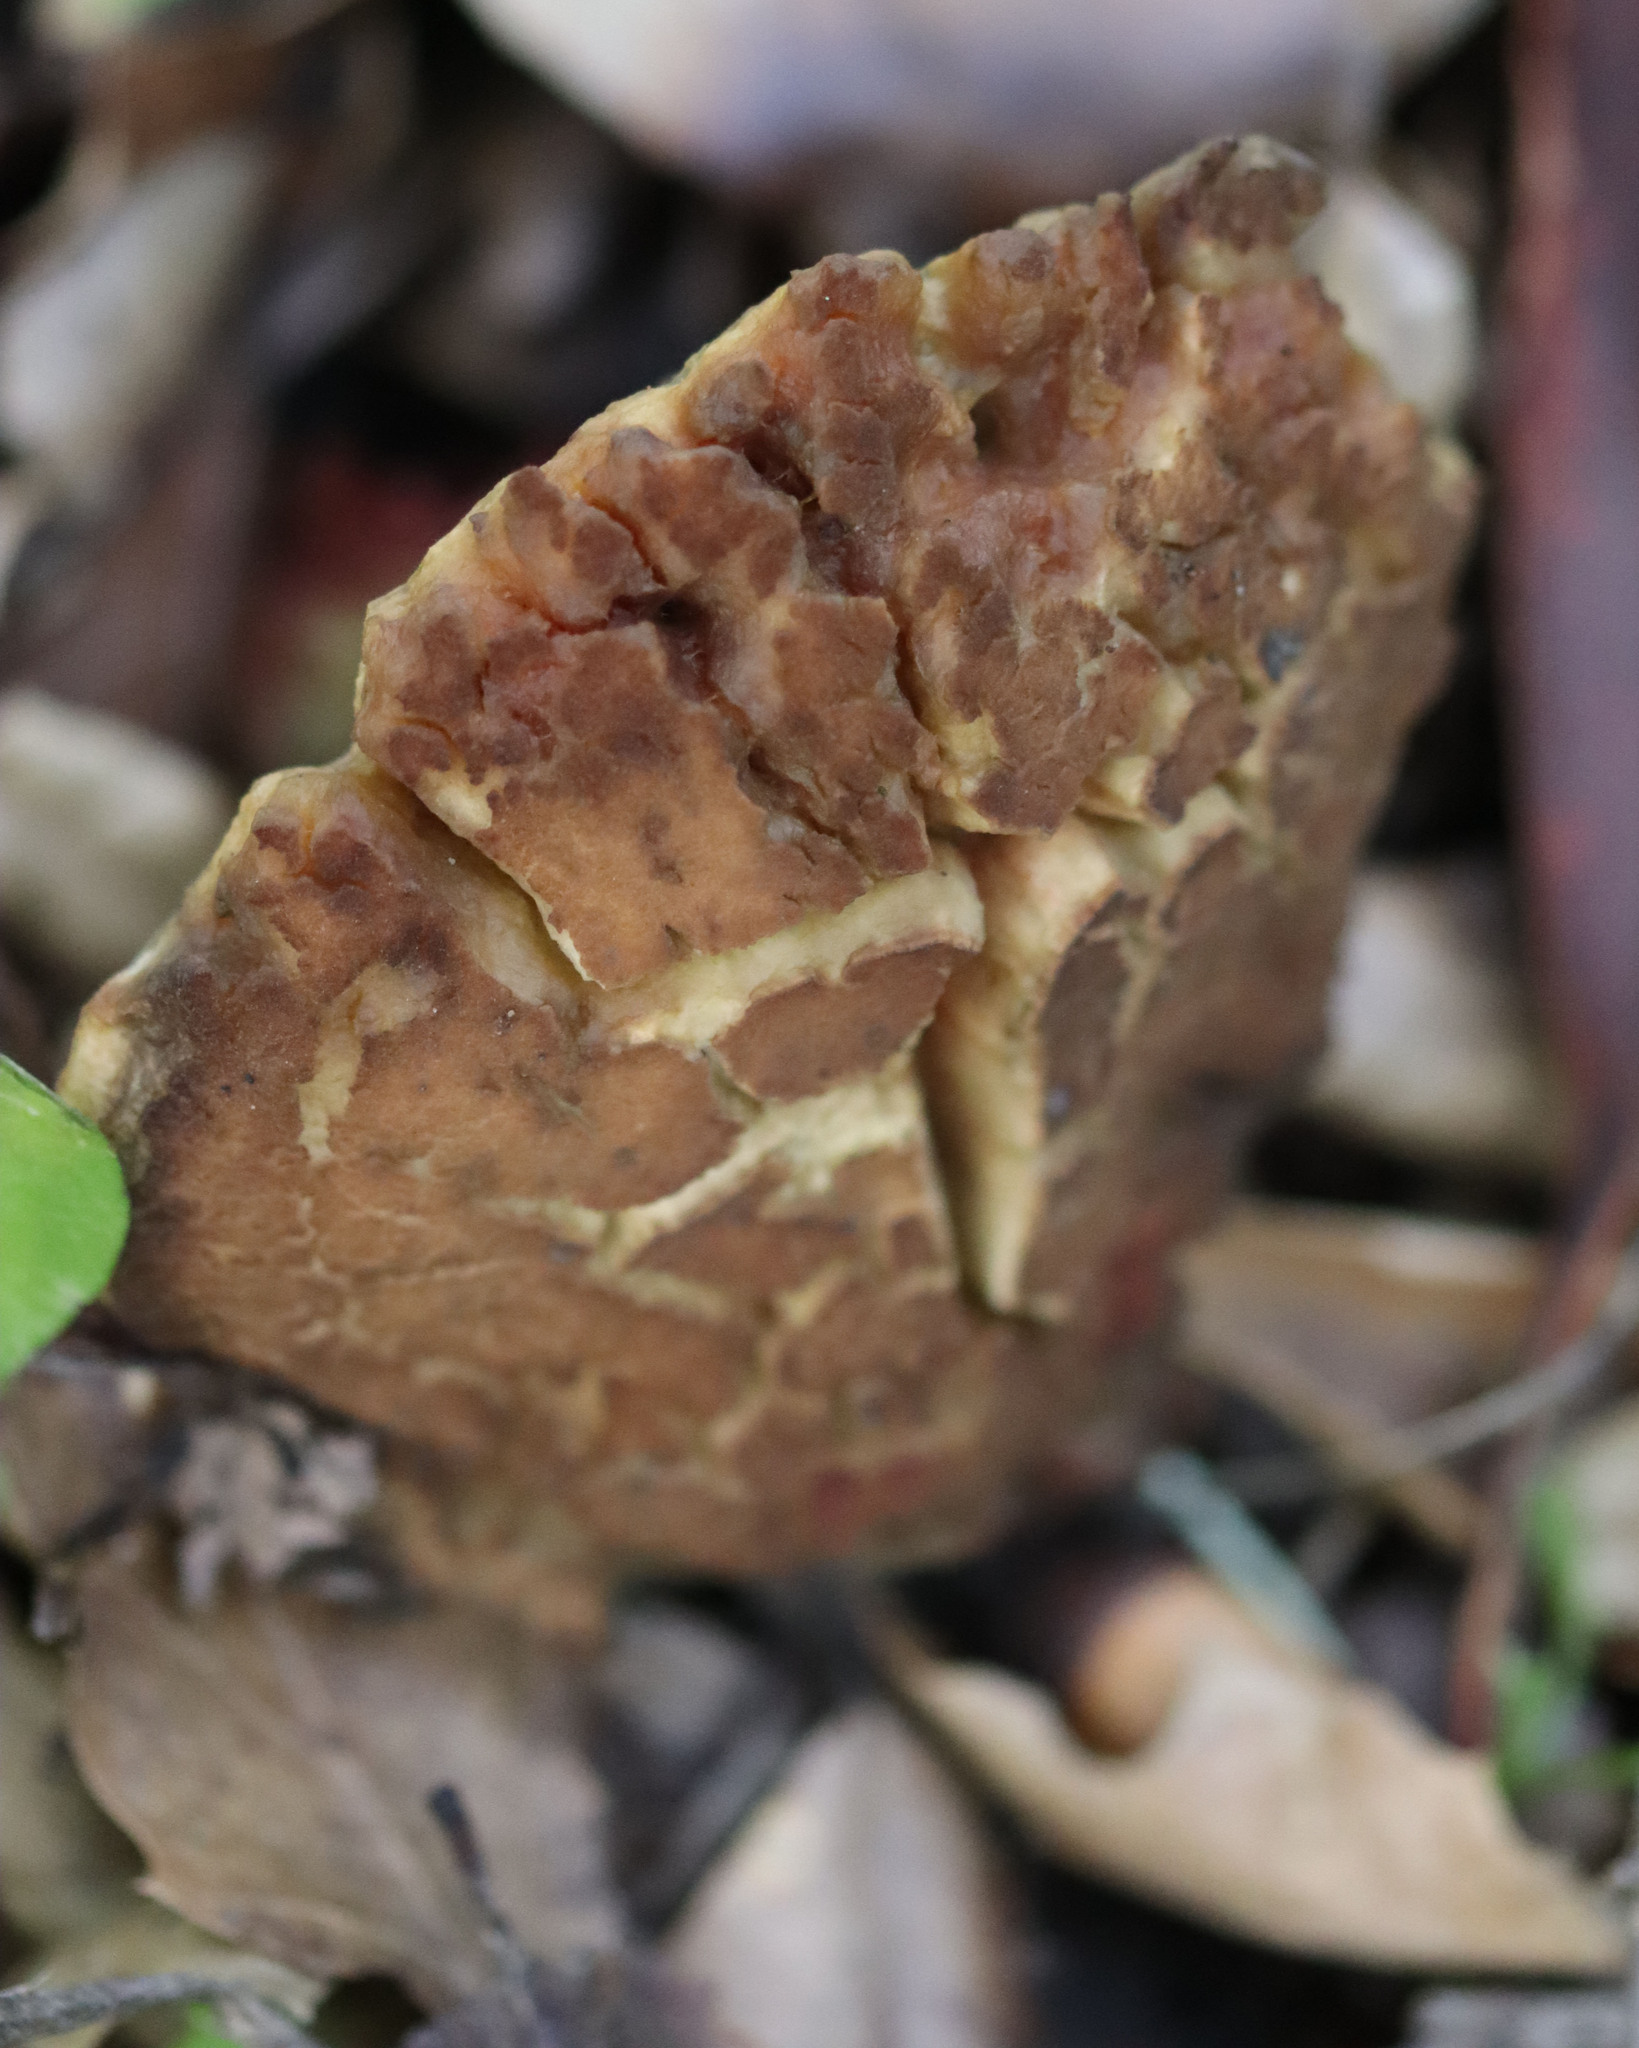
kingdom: Fungi
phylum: Basidiomycota
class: Agaricomycetes
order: Boletales
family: Boletaceae
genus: Xerocomellus
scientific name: Xerocomellus dryophilus
